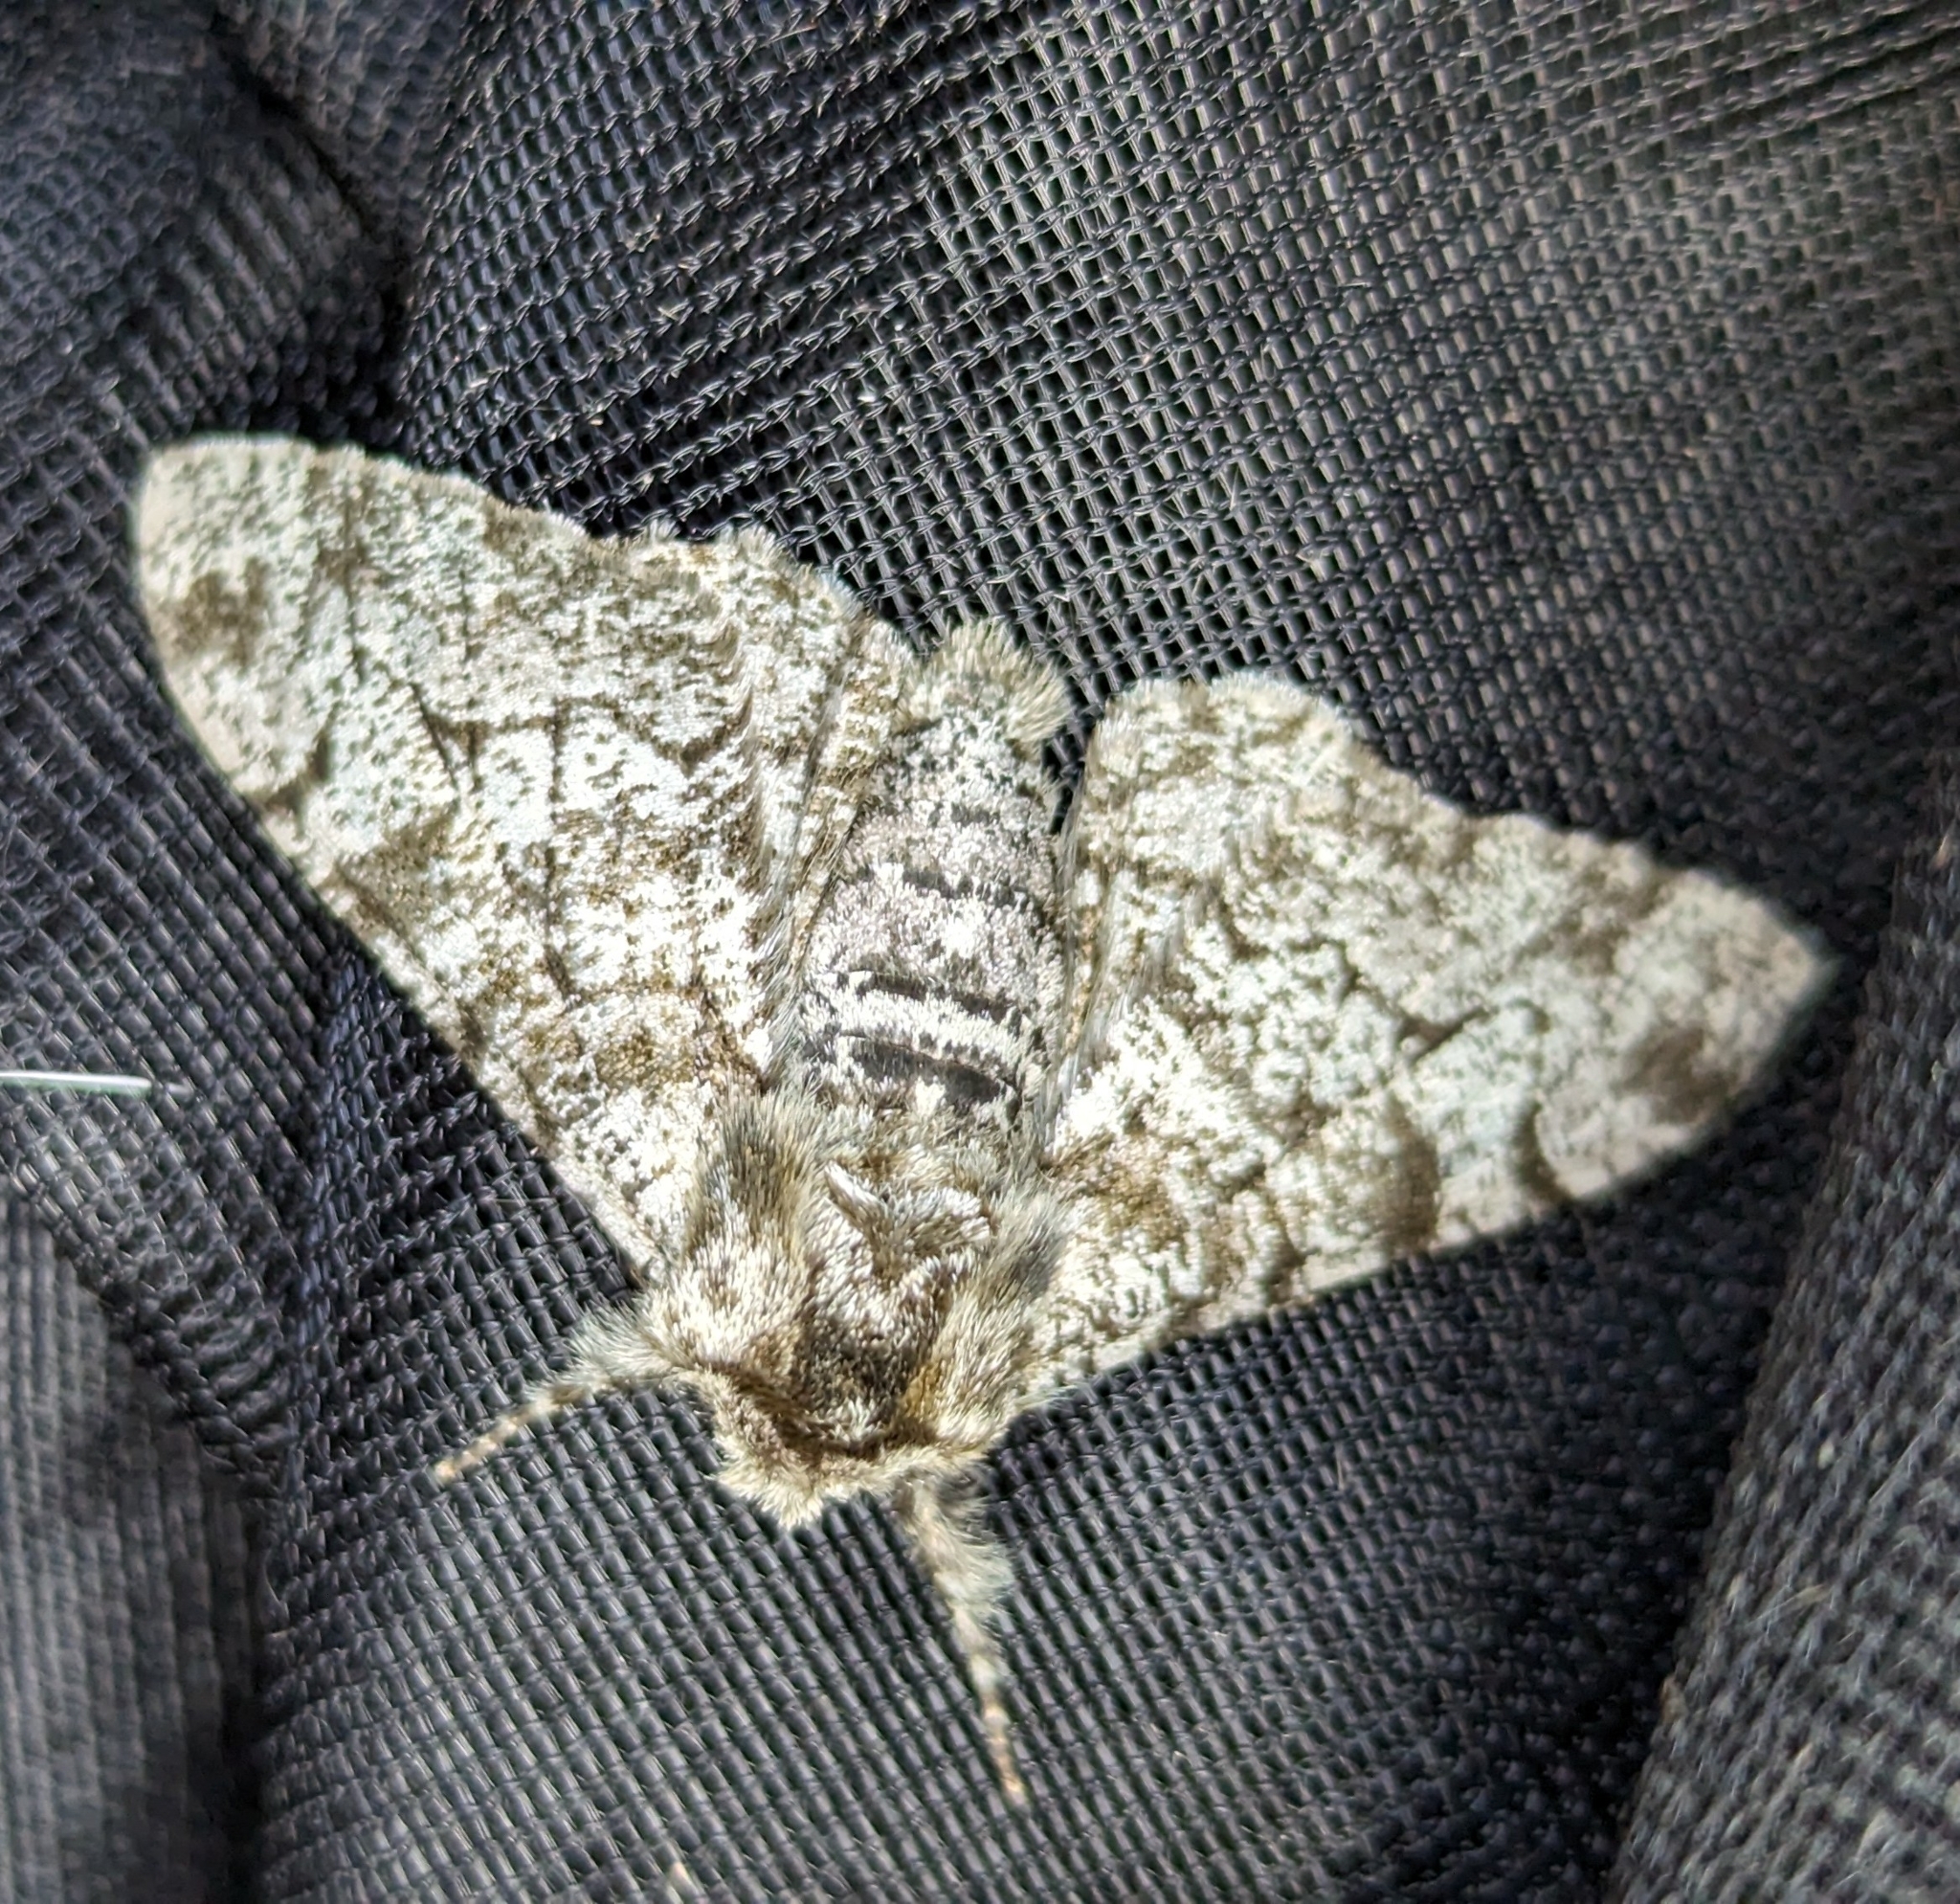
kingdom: Animalia
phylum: Arthropoda
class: Insecta
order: Lepidoptera
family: Geometridae
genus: Biston
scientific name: Biston betularia
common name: Peppered moth
